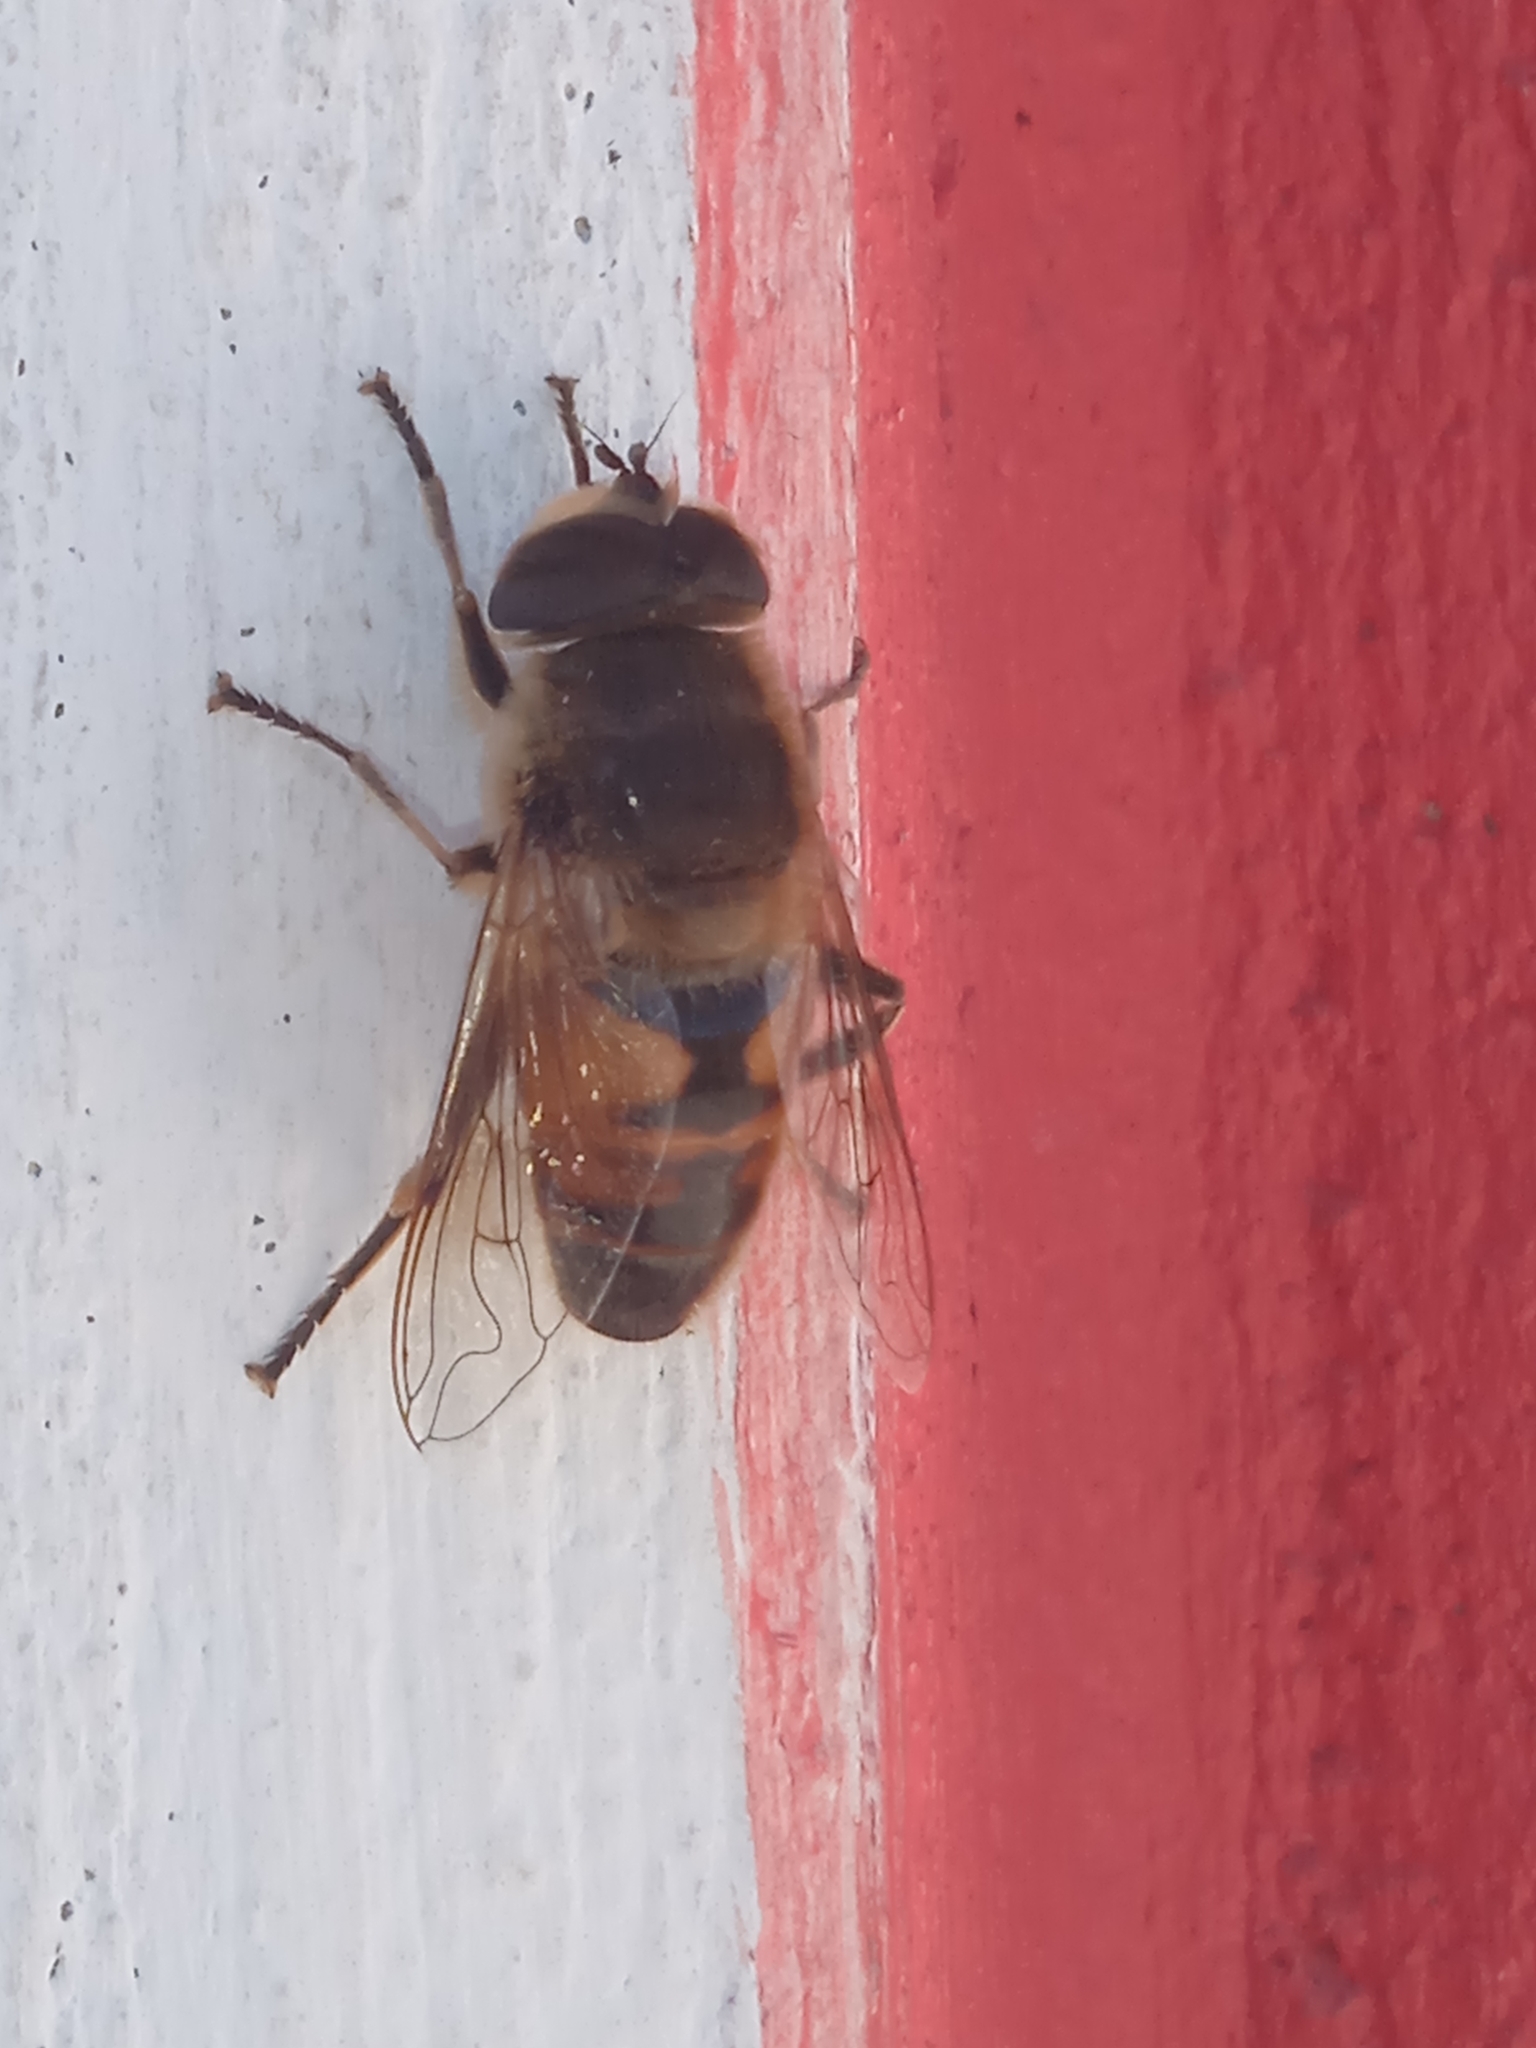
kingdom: Animalia
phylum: Arthropoda
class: Insecta
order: Diptera
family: Syrphidae
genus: Eristalis
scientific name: Eristalis tenax
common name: Drone fly
